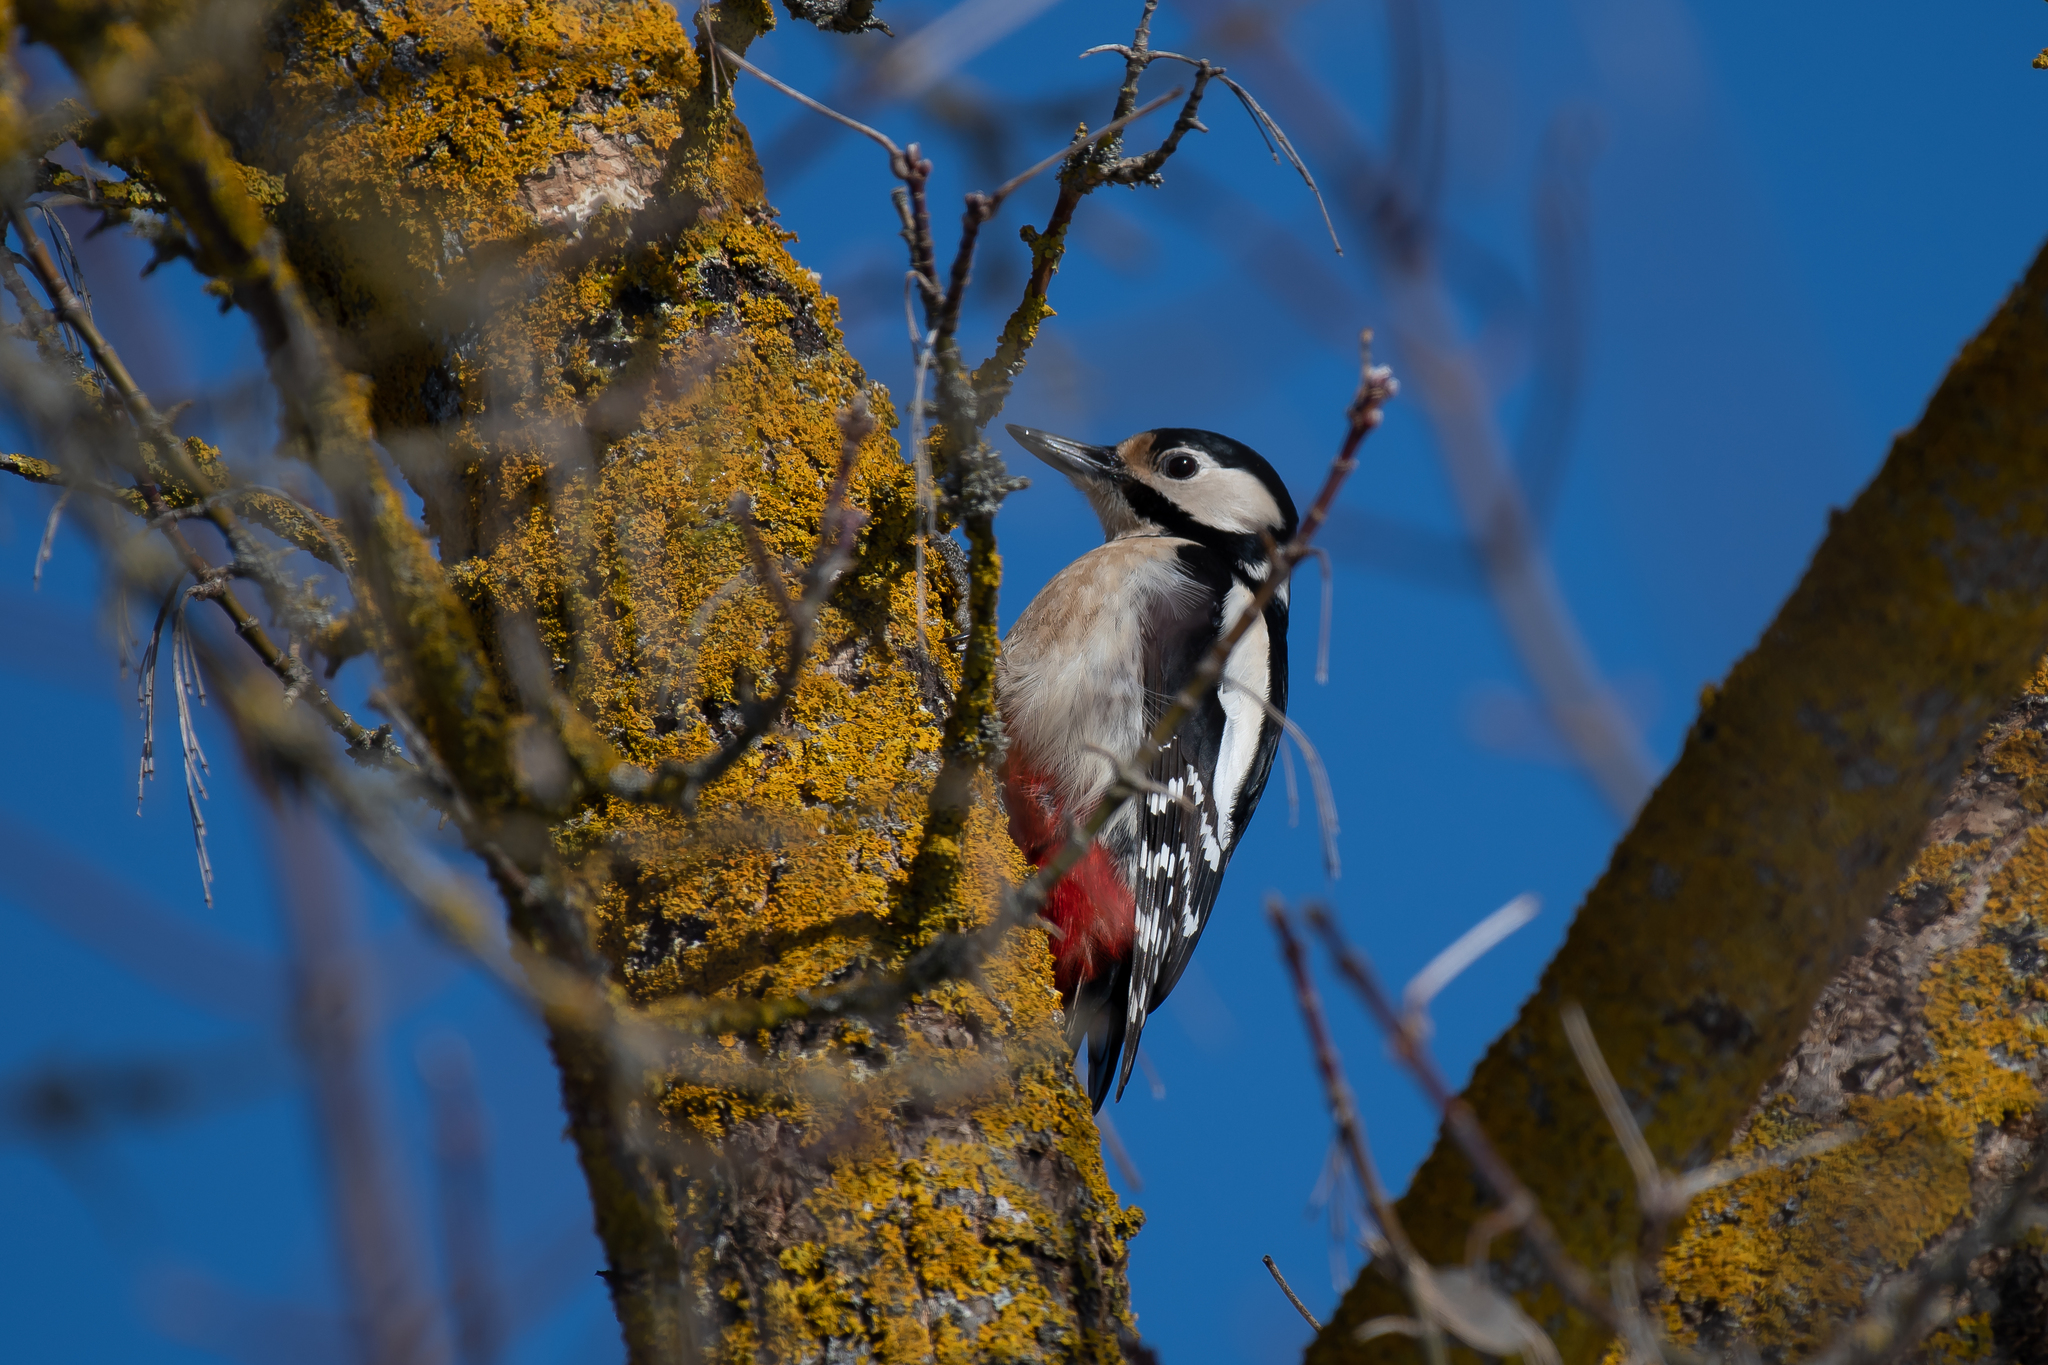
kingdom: Animalia
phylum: Chordata
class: Aves
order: Piciformes
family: Picidae
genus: Dendrocopos
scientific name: Dendrocopos major
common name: Great spotted woodpecker
